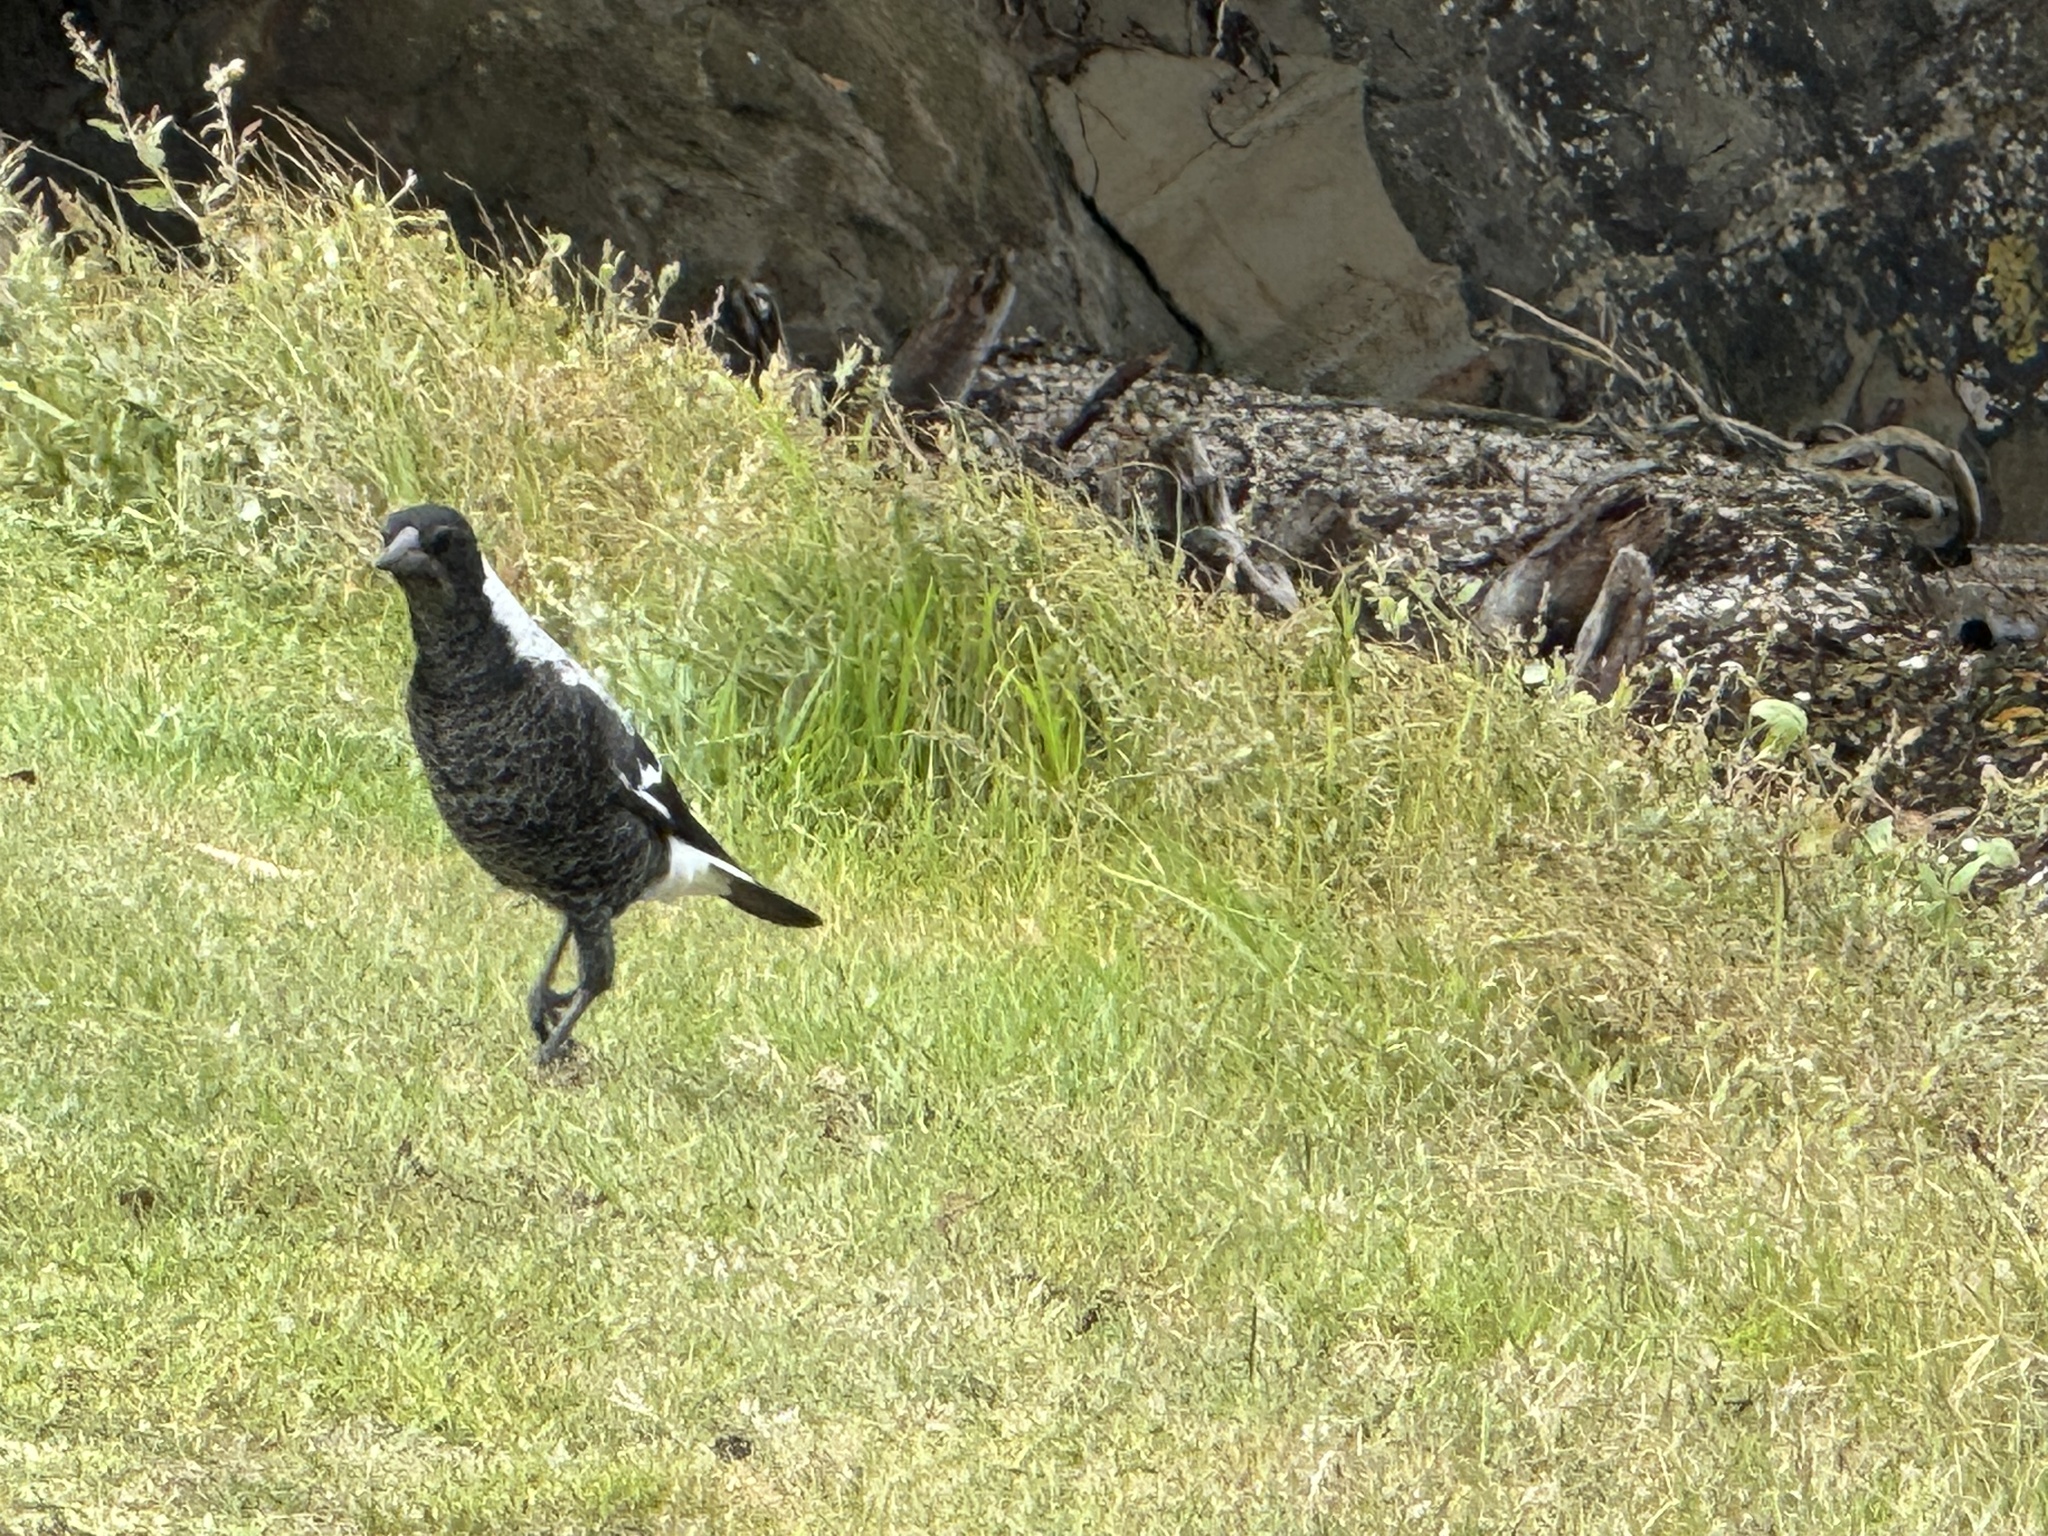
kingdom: Animalia
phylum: Chordata
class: Aves
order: Passeriformes
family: Cracticidae
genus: Gymnorhina
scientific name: Gymnorhina tibicen
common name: Australian magpie
